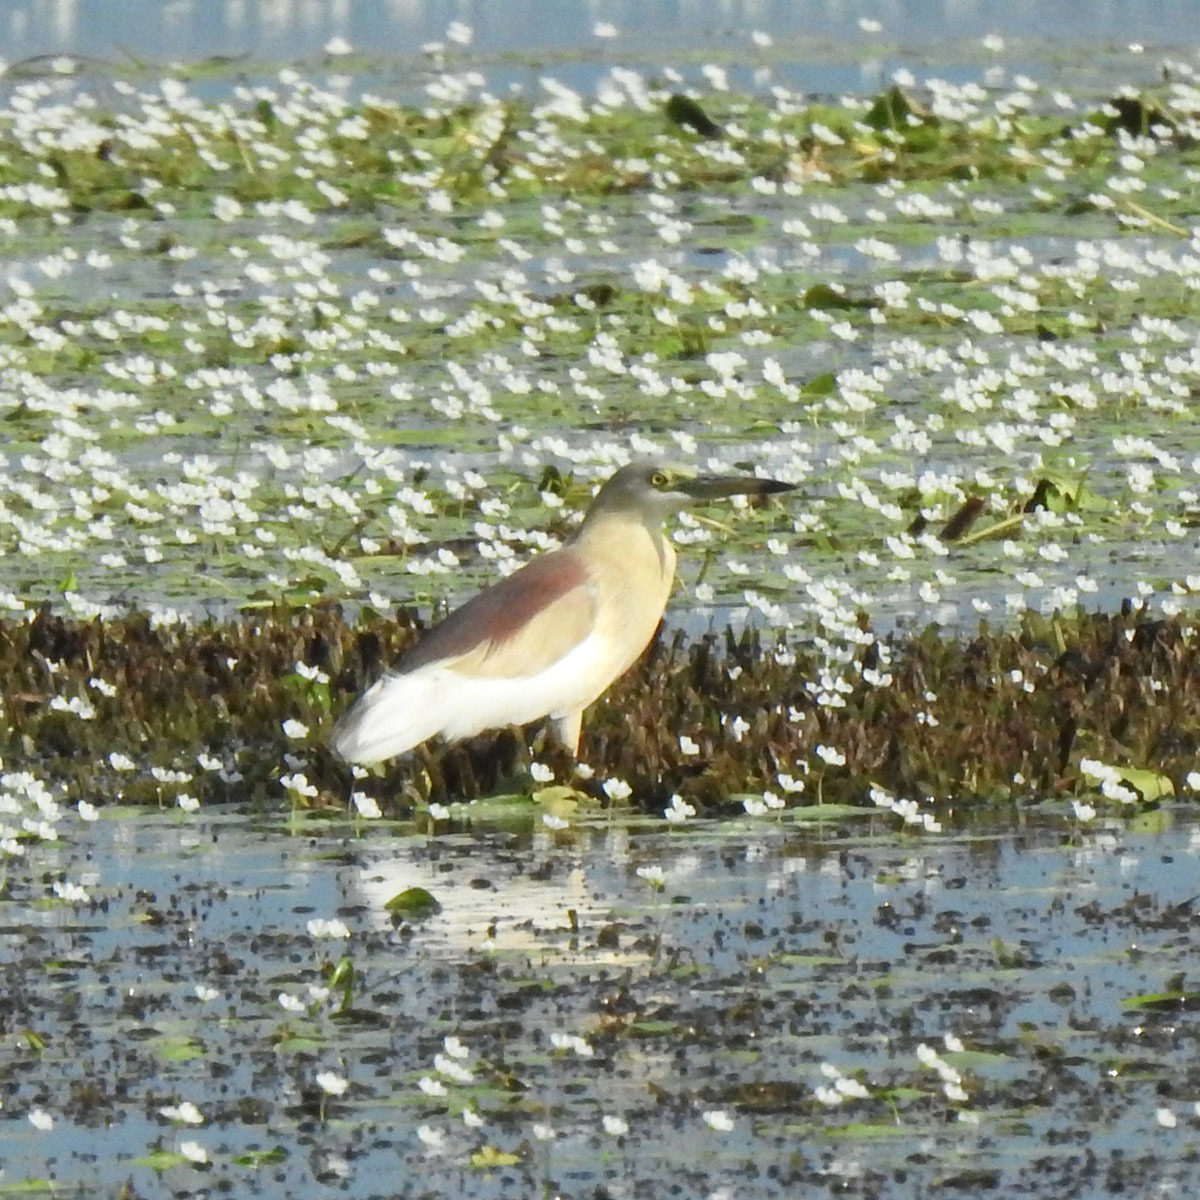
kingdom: Animalia
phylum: Chordata
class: Aves
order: Pelecaniformes
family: Ardeidae
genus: Ardeola
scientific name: Ardeola grayii
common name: Indian pond heron
